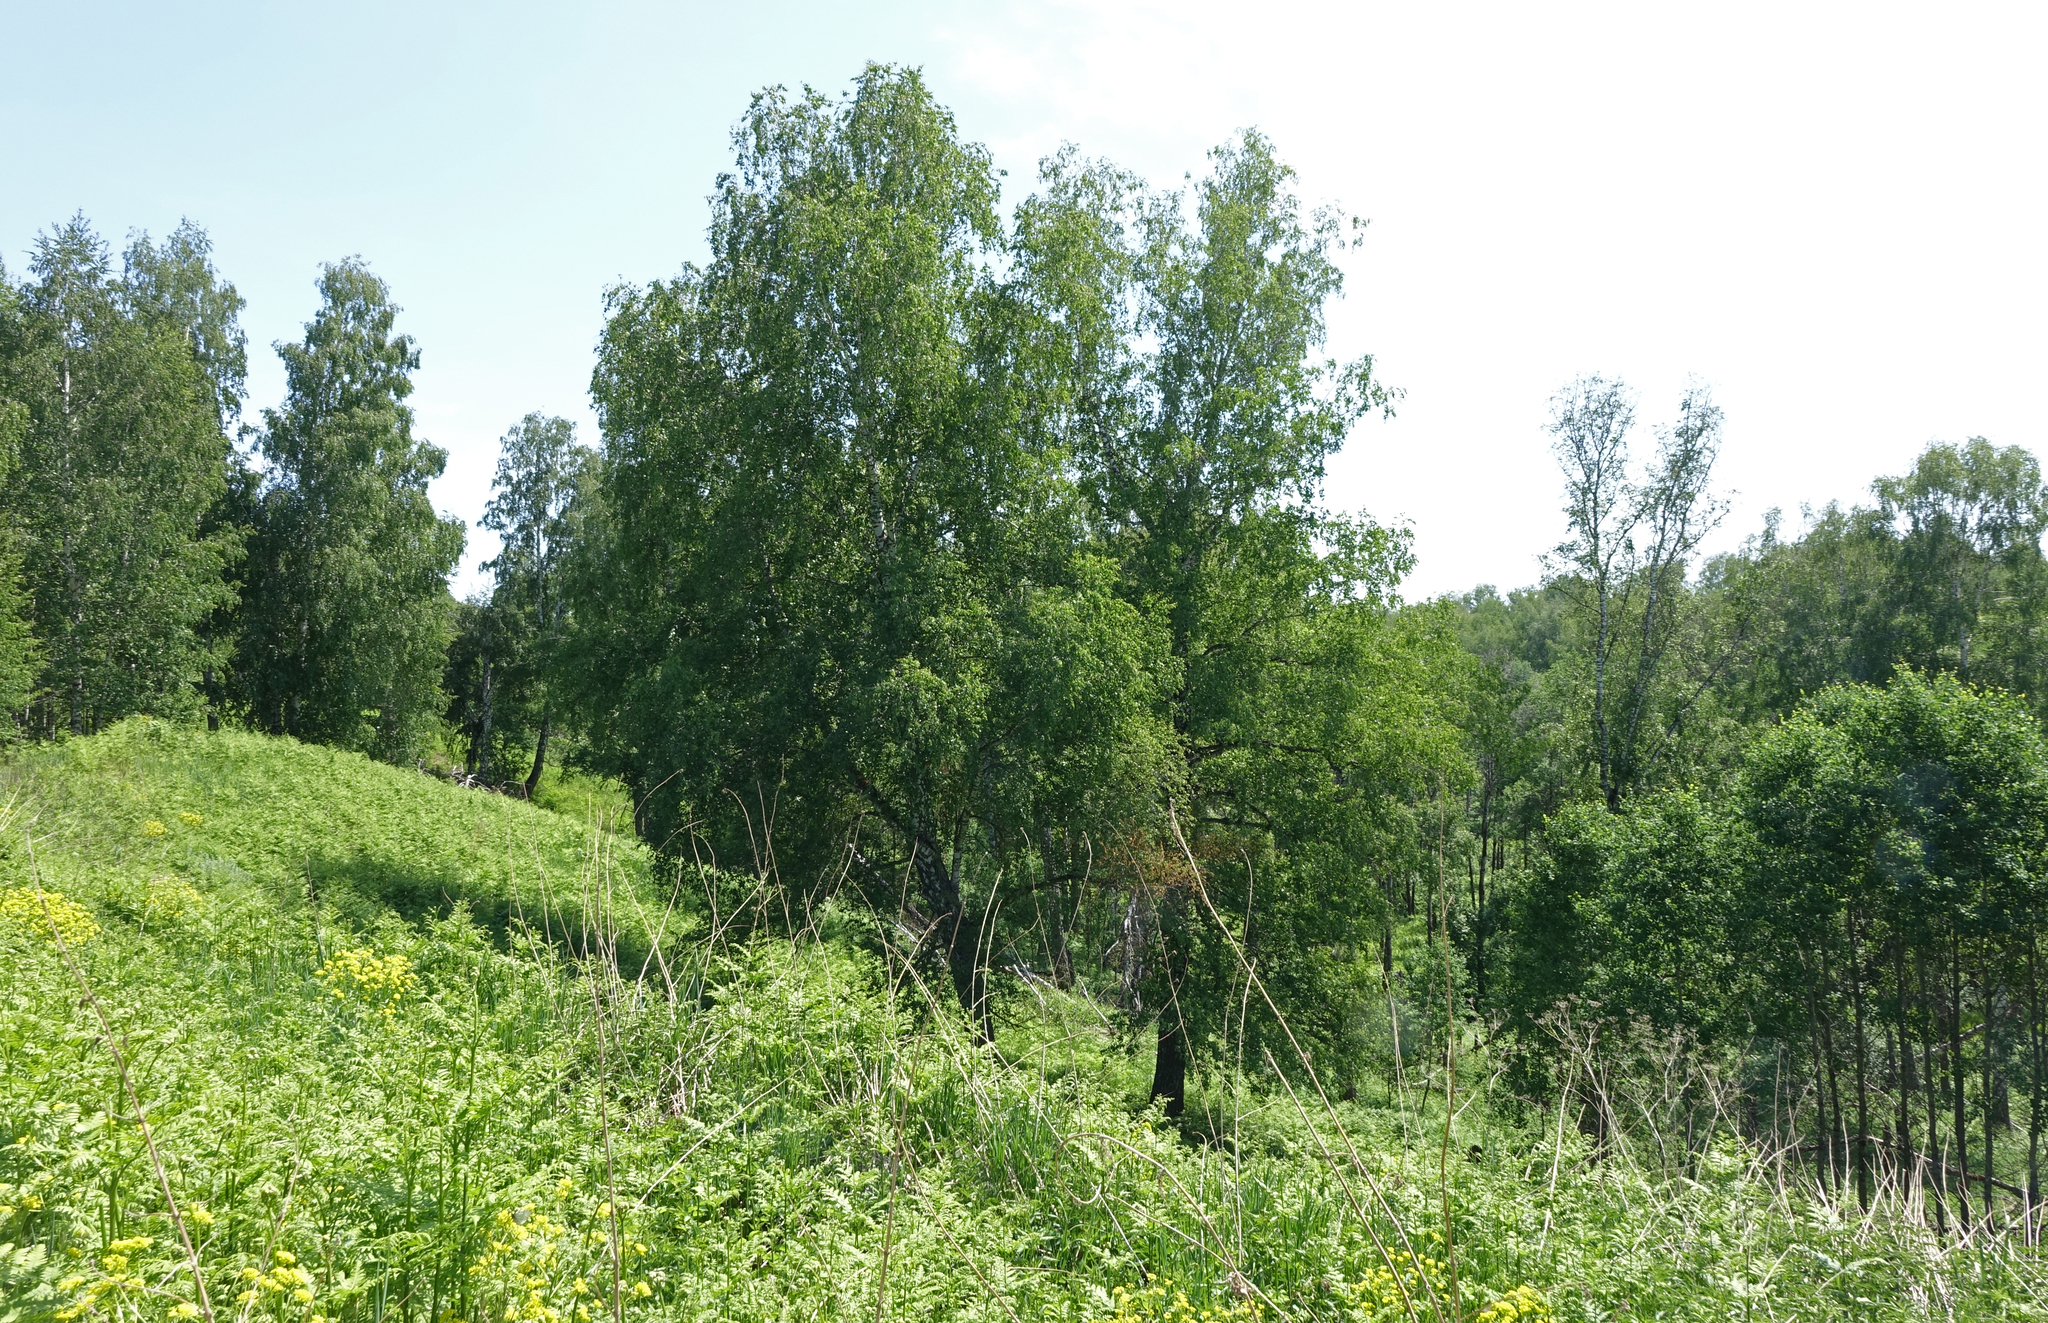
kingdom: Plantae
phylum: Tracheophyta
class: Magnoliopsida
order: Fagales
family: Betulaceae
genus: Betula
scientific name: Betula pendula
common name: Silver birch
